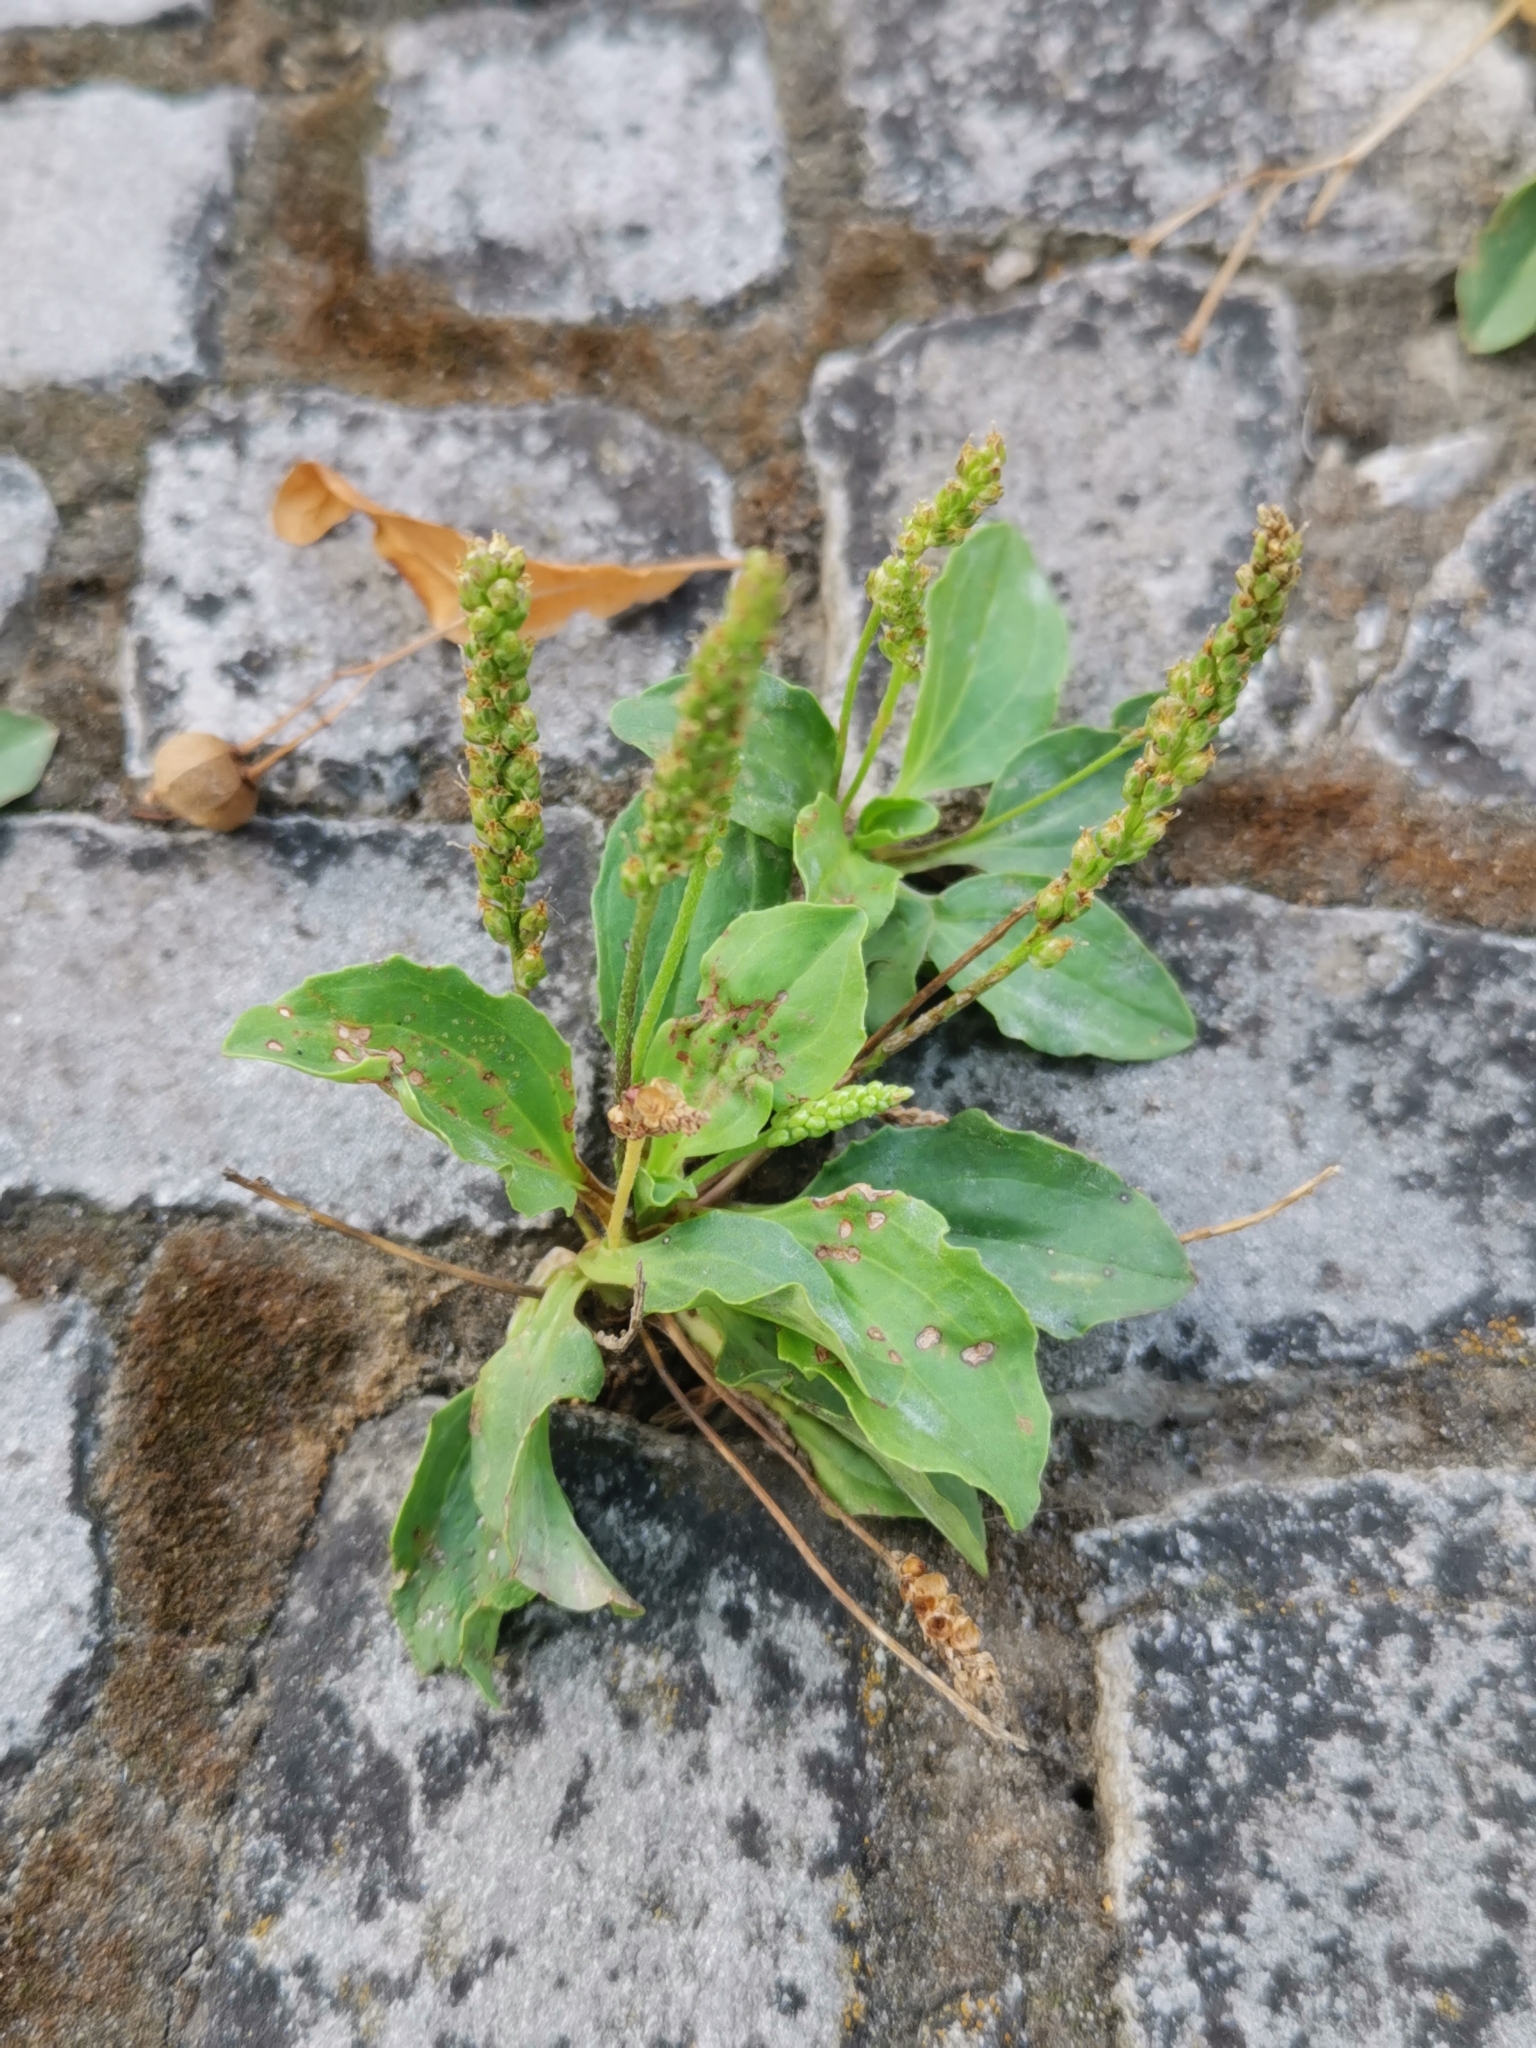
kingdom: Plantae
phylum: Tracheophyta
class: Magnoliopsida
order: Lamiales
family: Plantaginaceae
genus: Plantago
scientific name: Plantago major
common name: Common plantain
